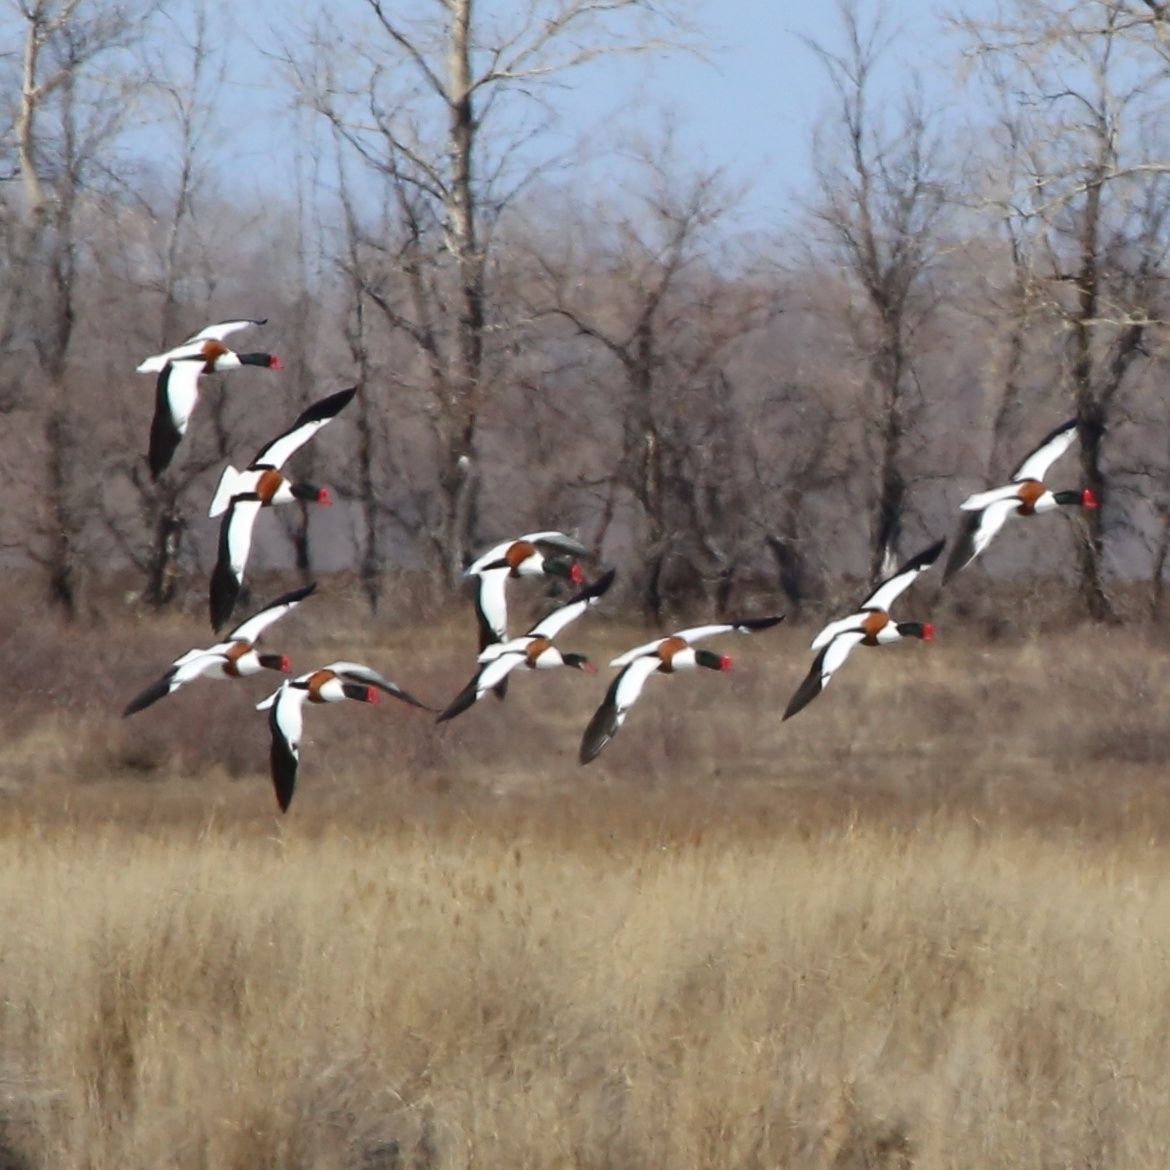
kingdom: Animalia
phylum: Chordata
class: Aves
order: Anseriformes
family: Anatidae
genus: Tadorna
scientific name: Tadorna tadorna
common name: Common shelduck
